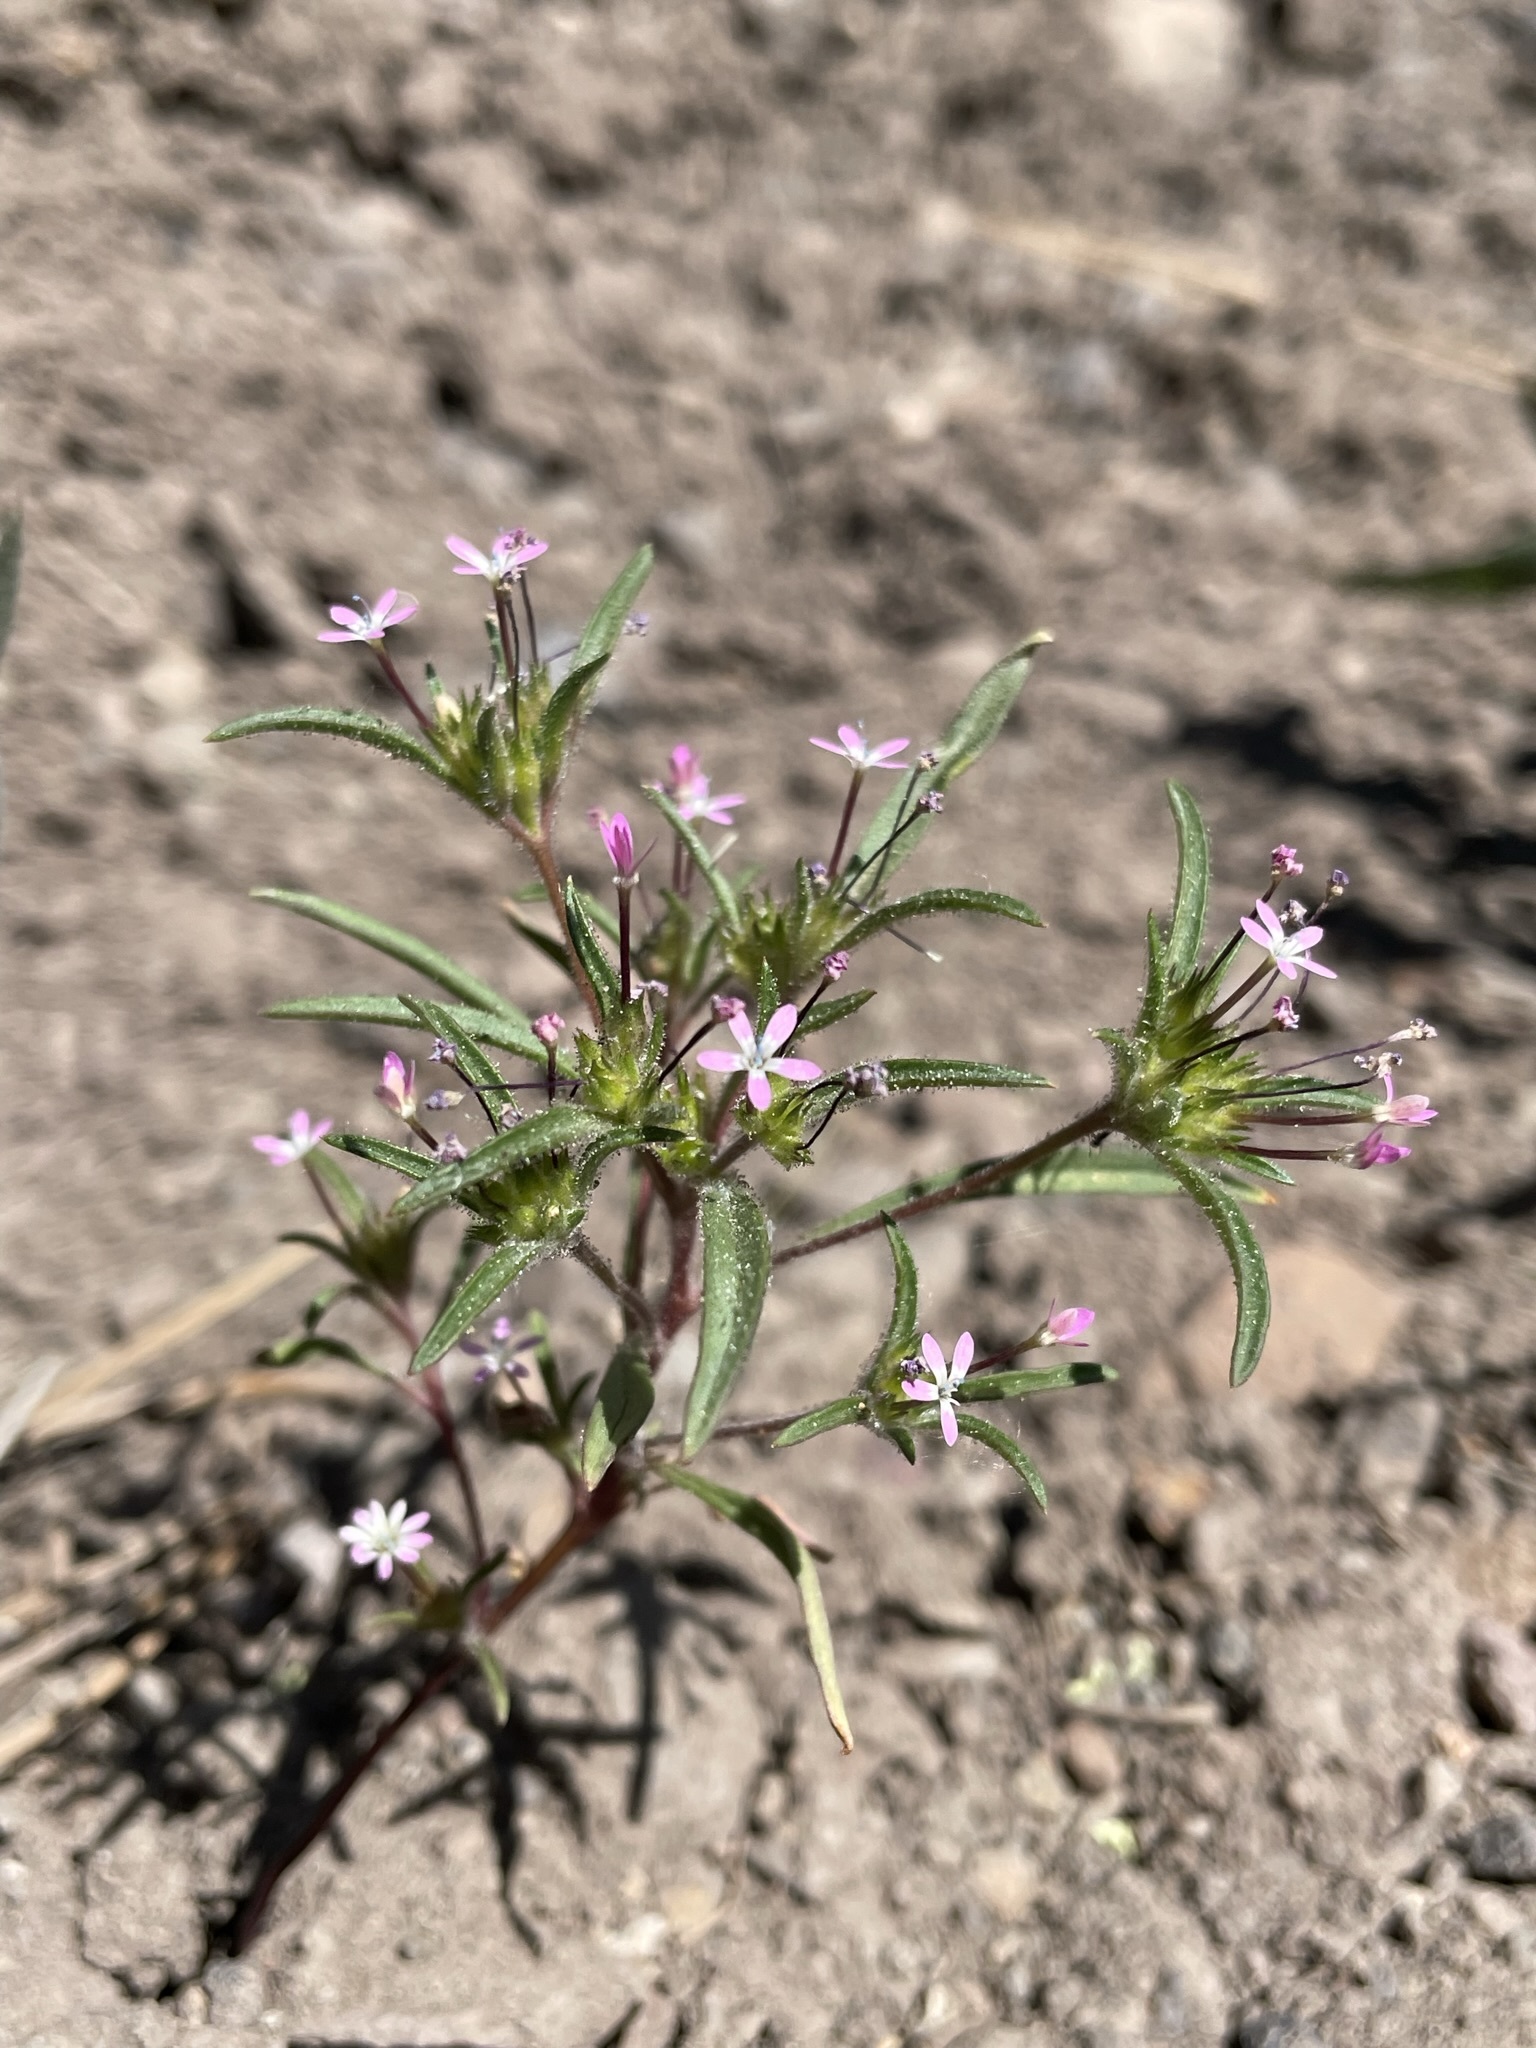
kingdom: Plantae
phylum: Tracheophyta
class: Magnoliopsida
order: Ericales
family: Polemoniaceae
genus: Collomia
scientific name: Collomia tinctoria
